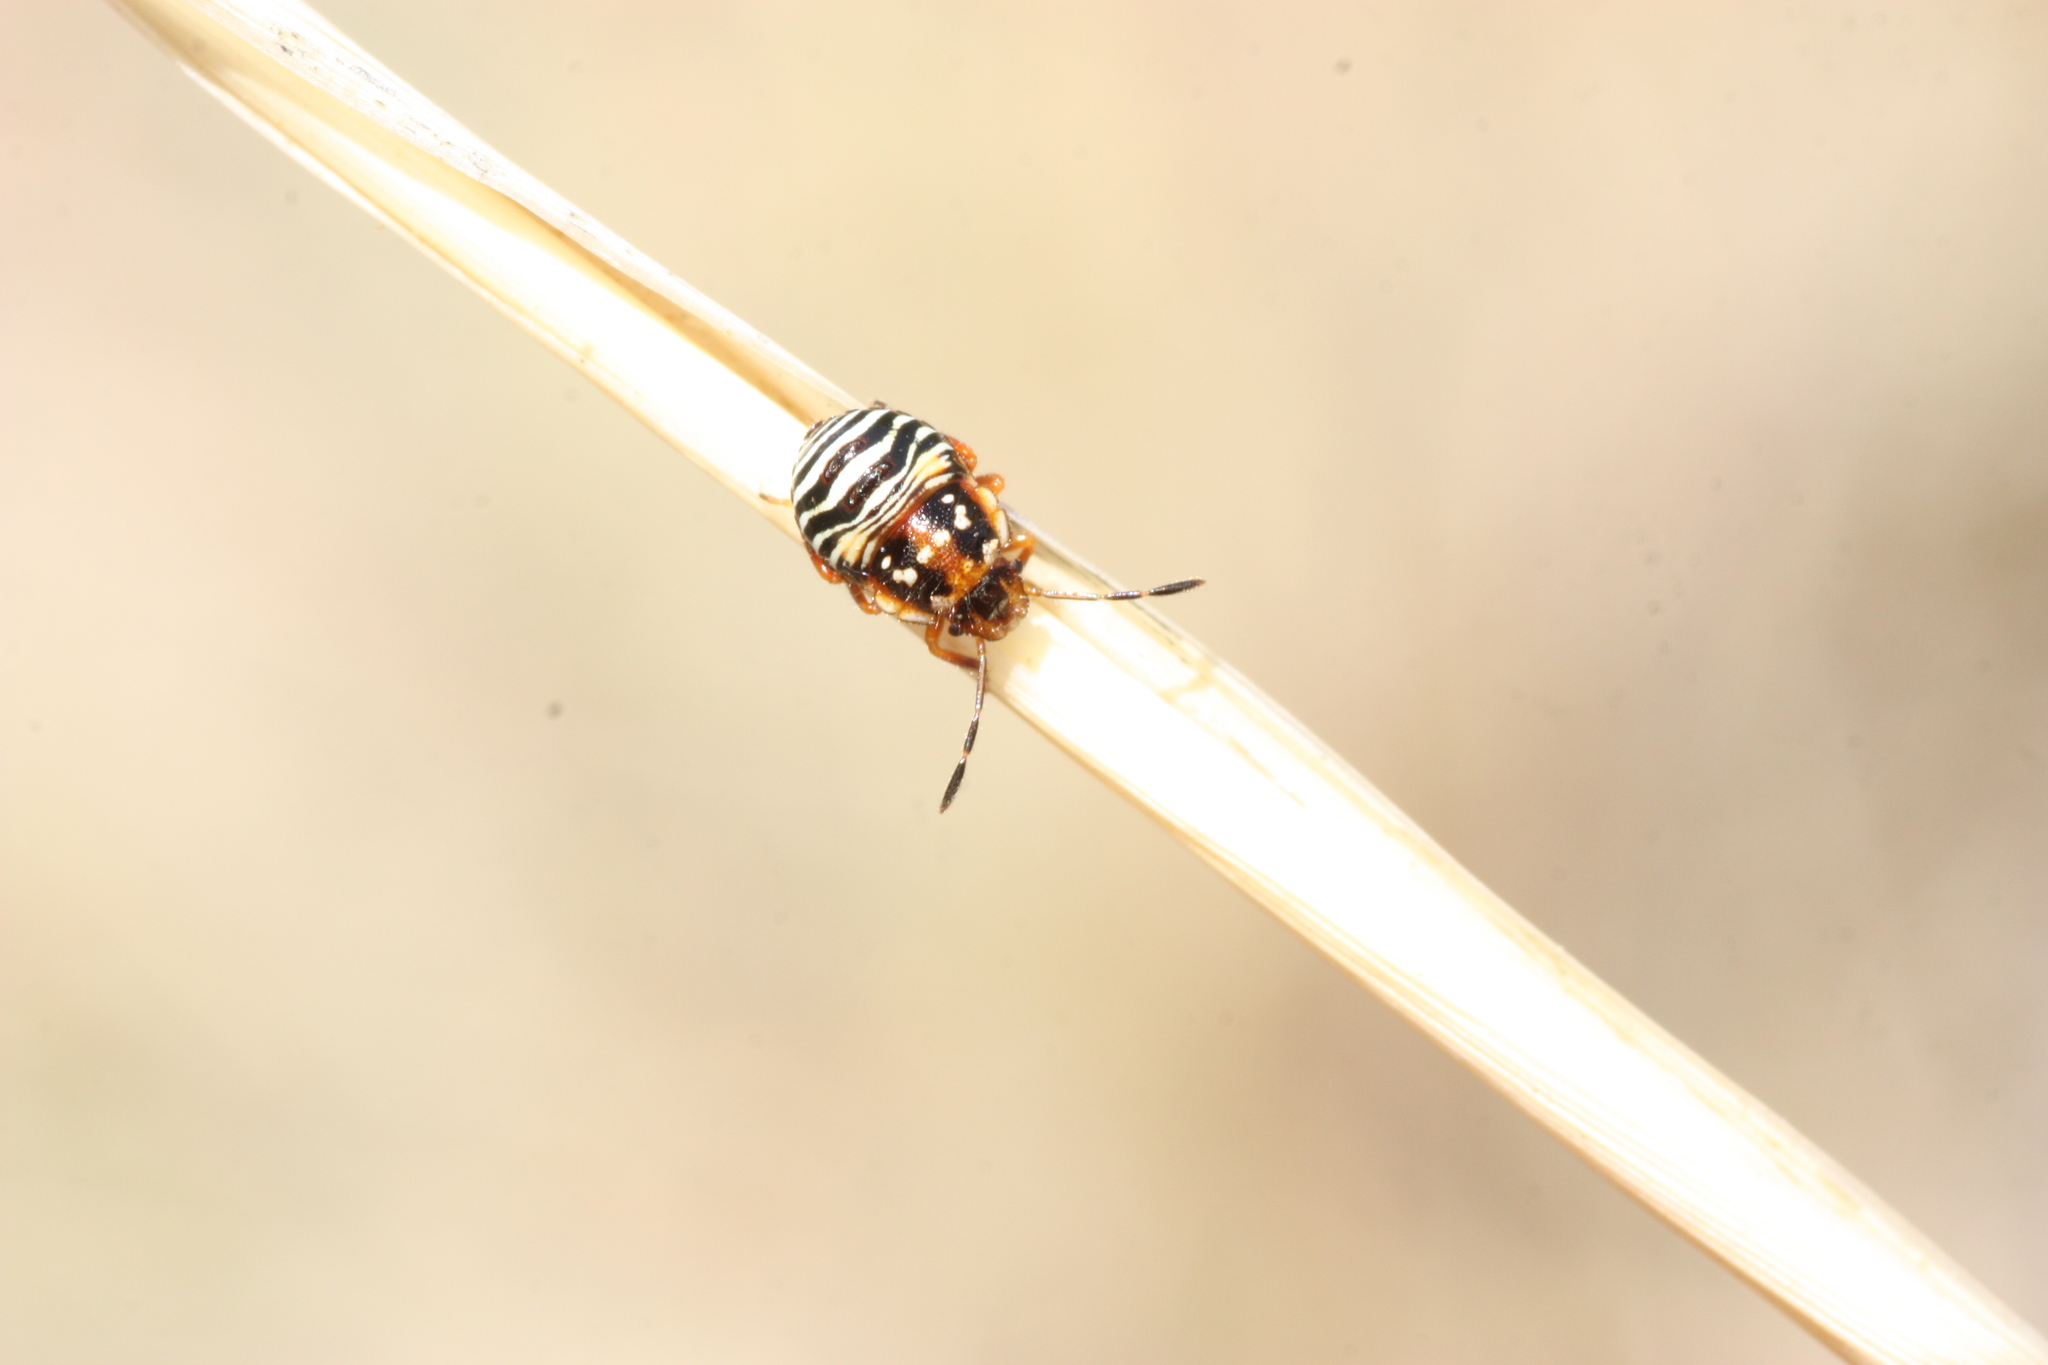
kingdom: Animalia
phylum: Arthropoda
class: Insecta
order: Hemiptera
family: Pentatomidae
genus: Thyanta
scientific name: Thyanta accerra
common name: Stink bug
